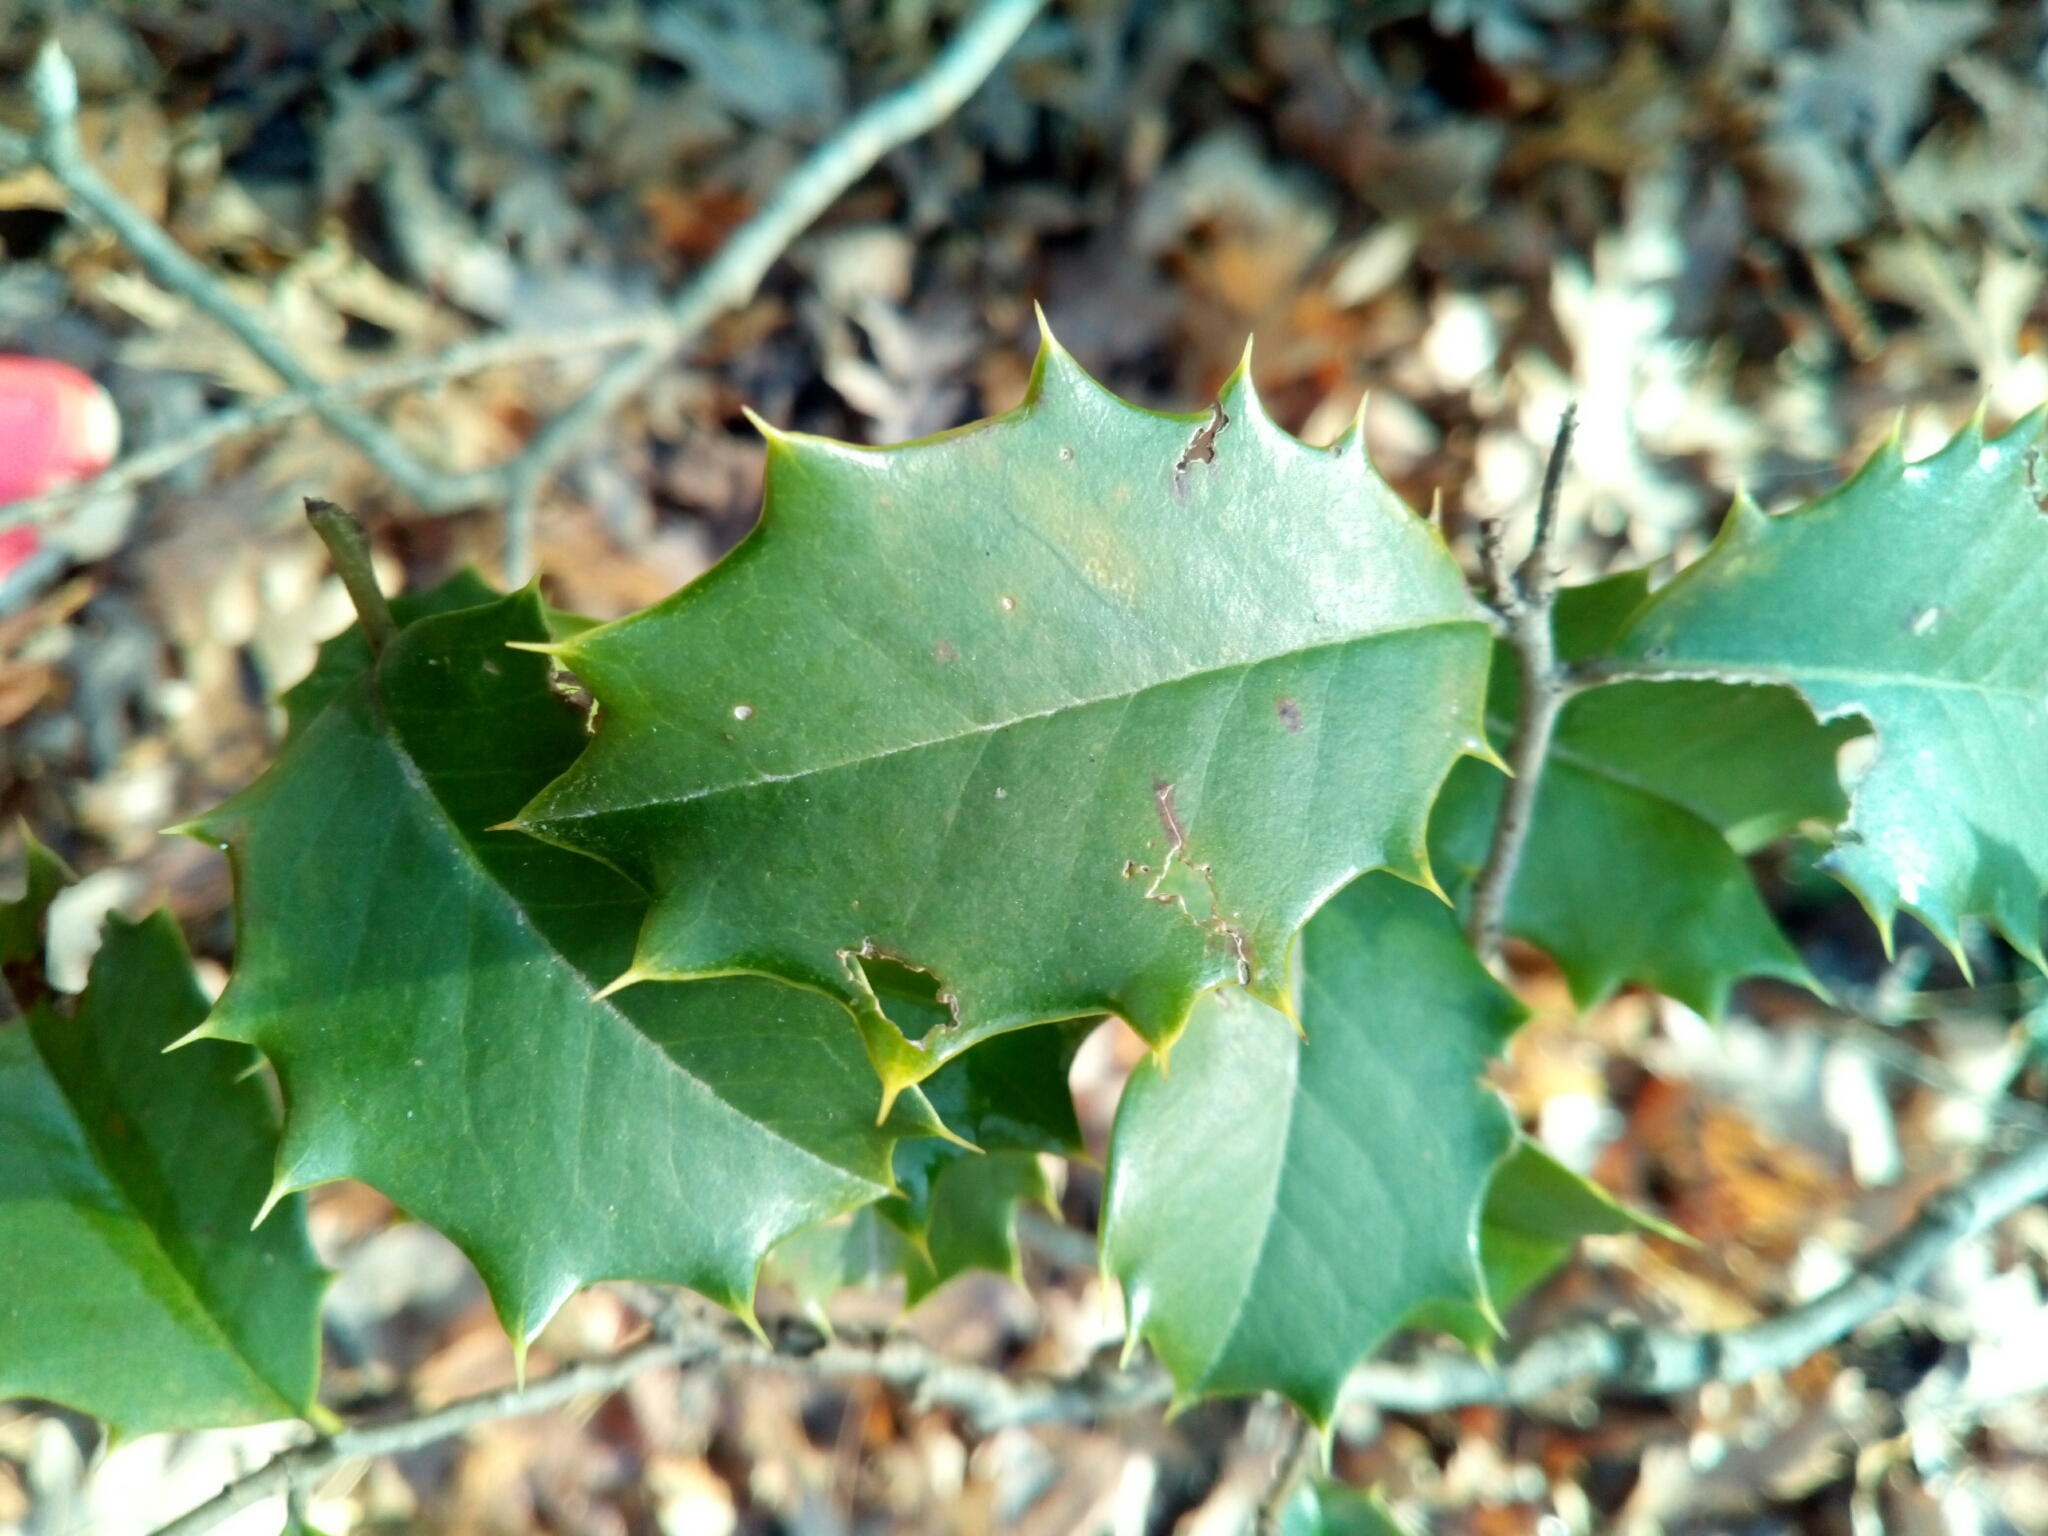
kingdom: Plantae
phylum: Tracheophyta
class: Magnoliopsida
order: Aquifoliales
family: Aquifoliaceae
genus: Ilex
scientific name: Ilex opaca
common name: American holly
